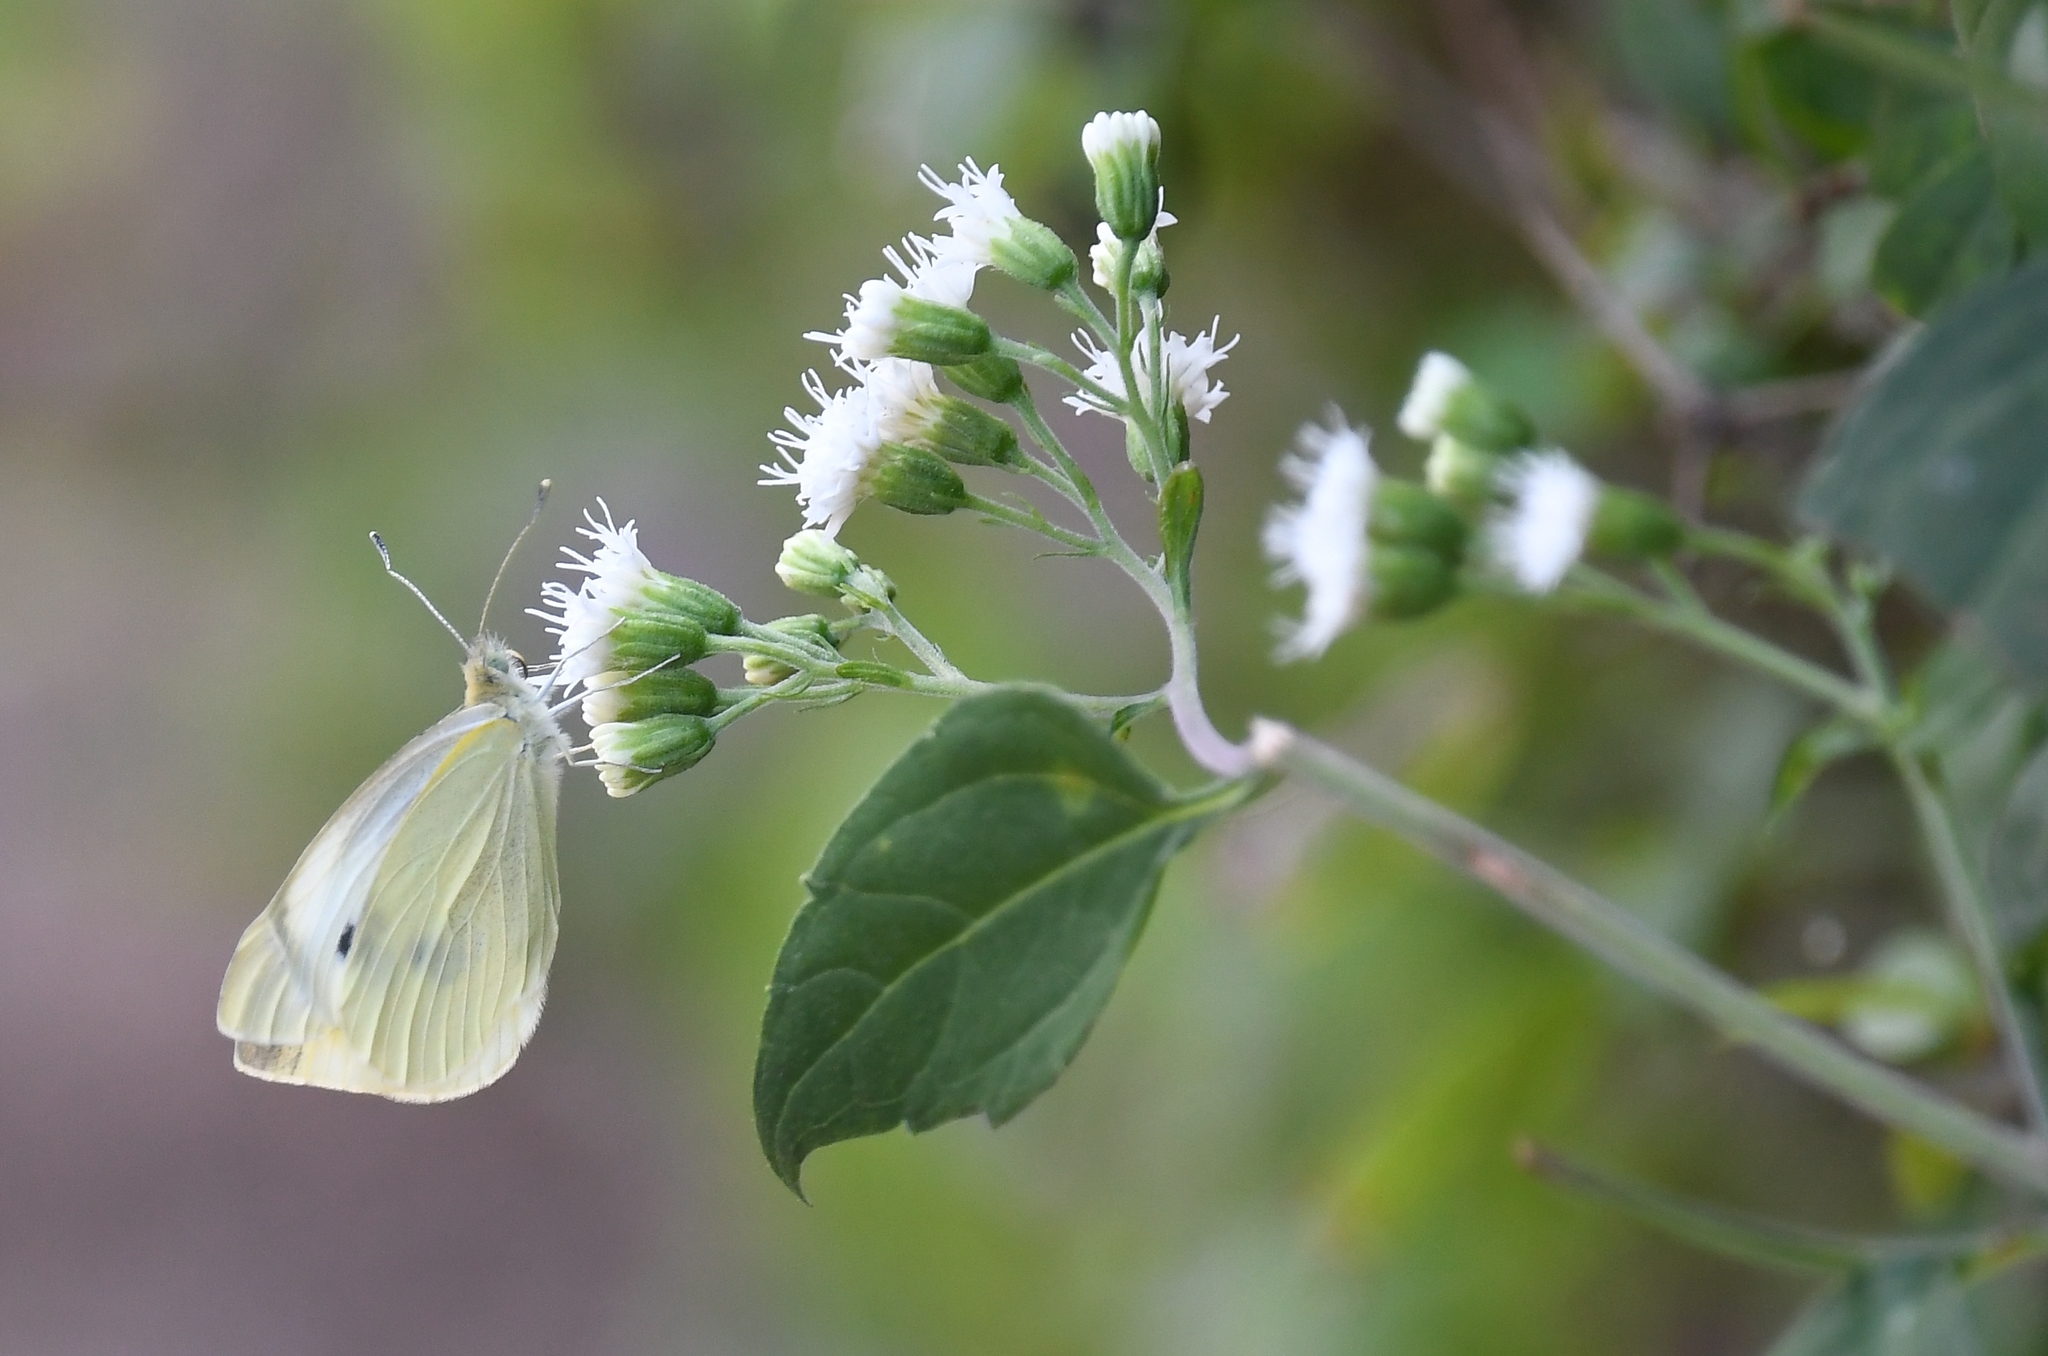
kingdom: Animalia
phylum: Arthropoda
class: Insecta
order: Lepidoptera
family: Pieridae
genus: Pieris
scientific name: Pieris rapae
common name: Small white
